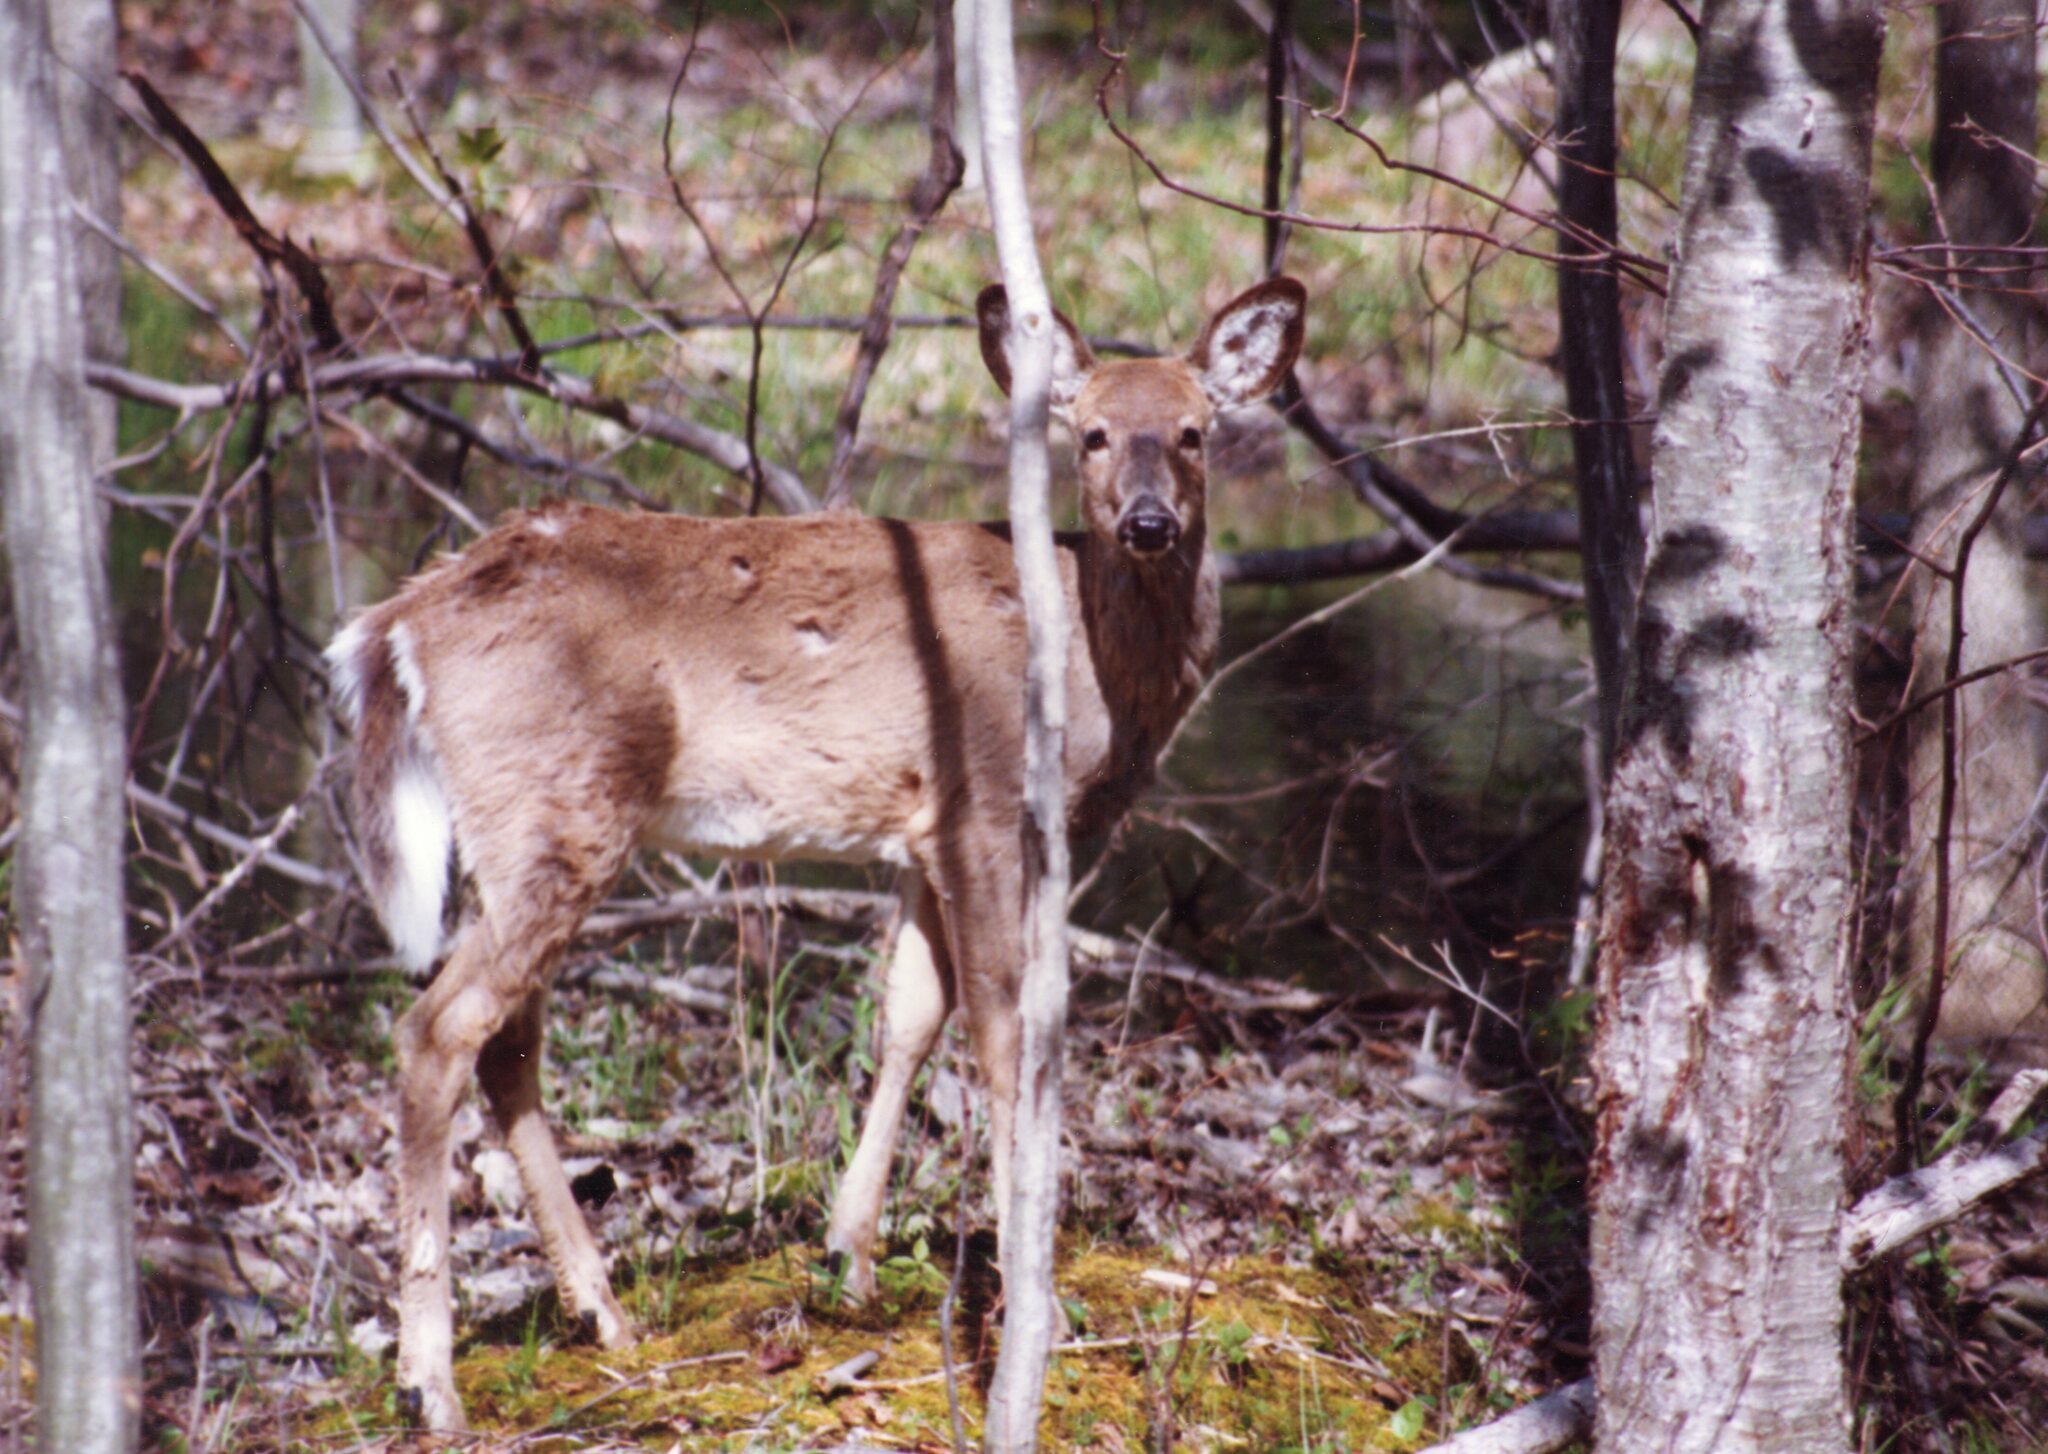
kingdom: Animalia
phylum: Chordata
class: Mammalia
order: Artiodactyla
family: Cervidae
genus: Odocoileus
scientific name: Odocoileus virginianus
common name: White-tailed deer
